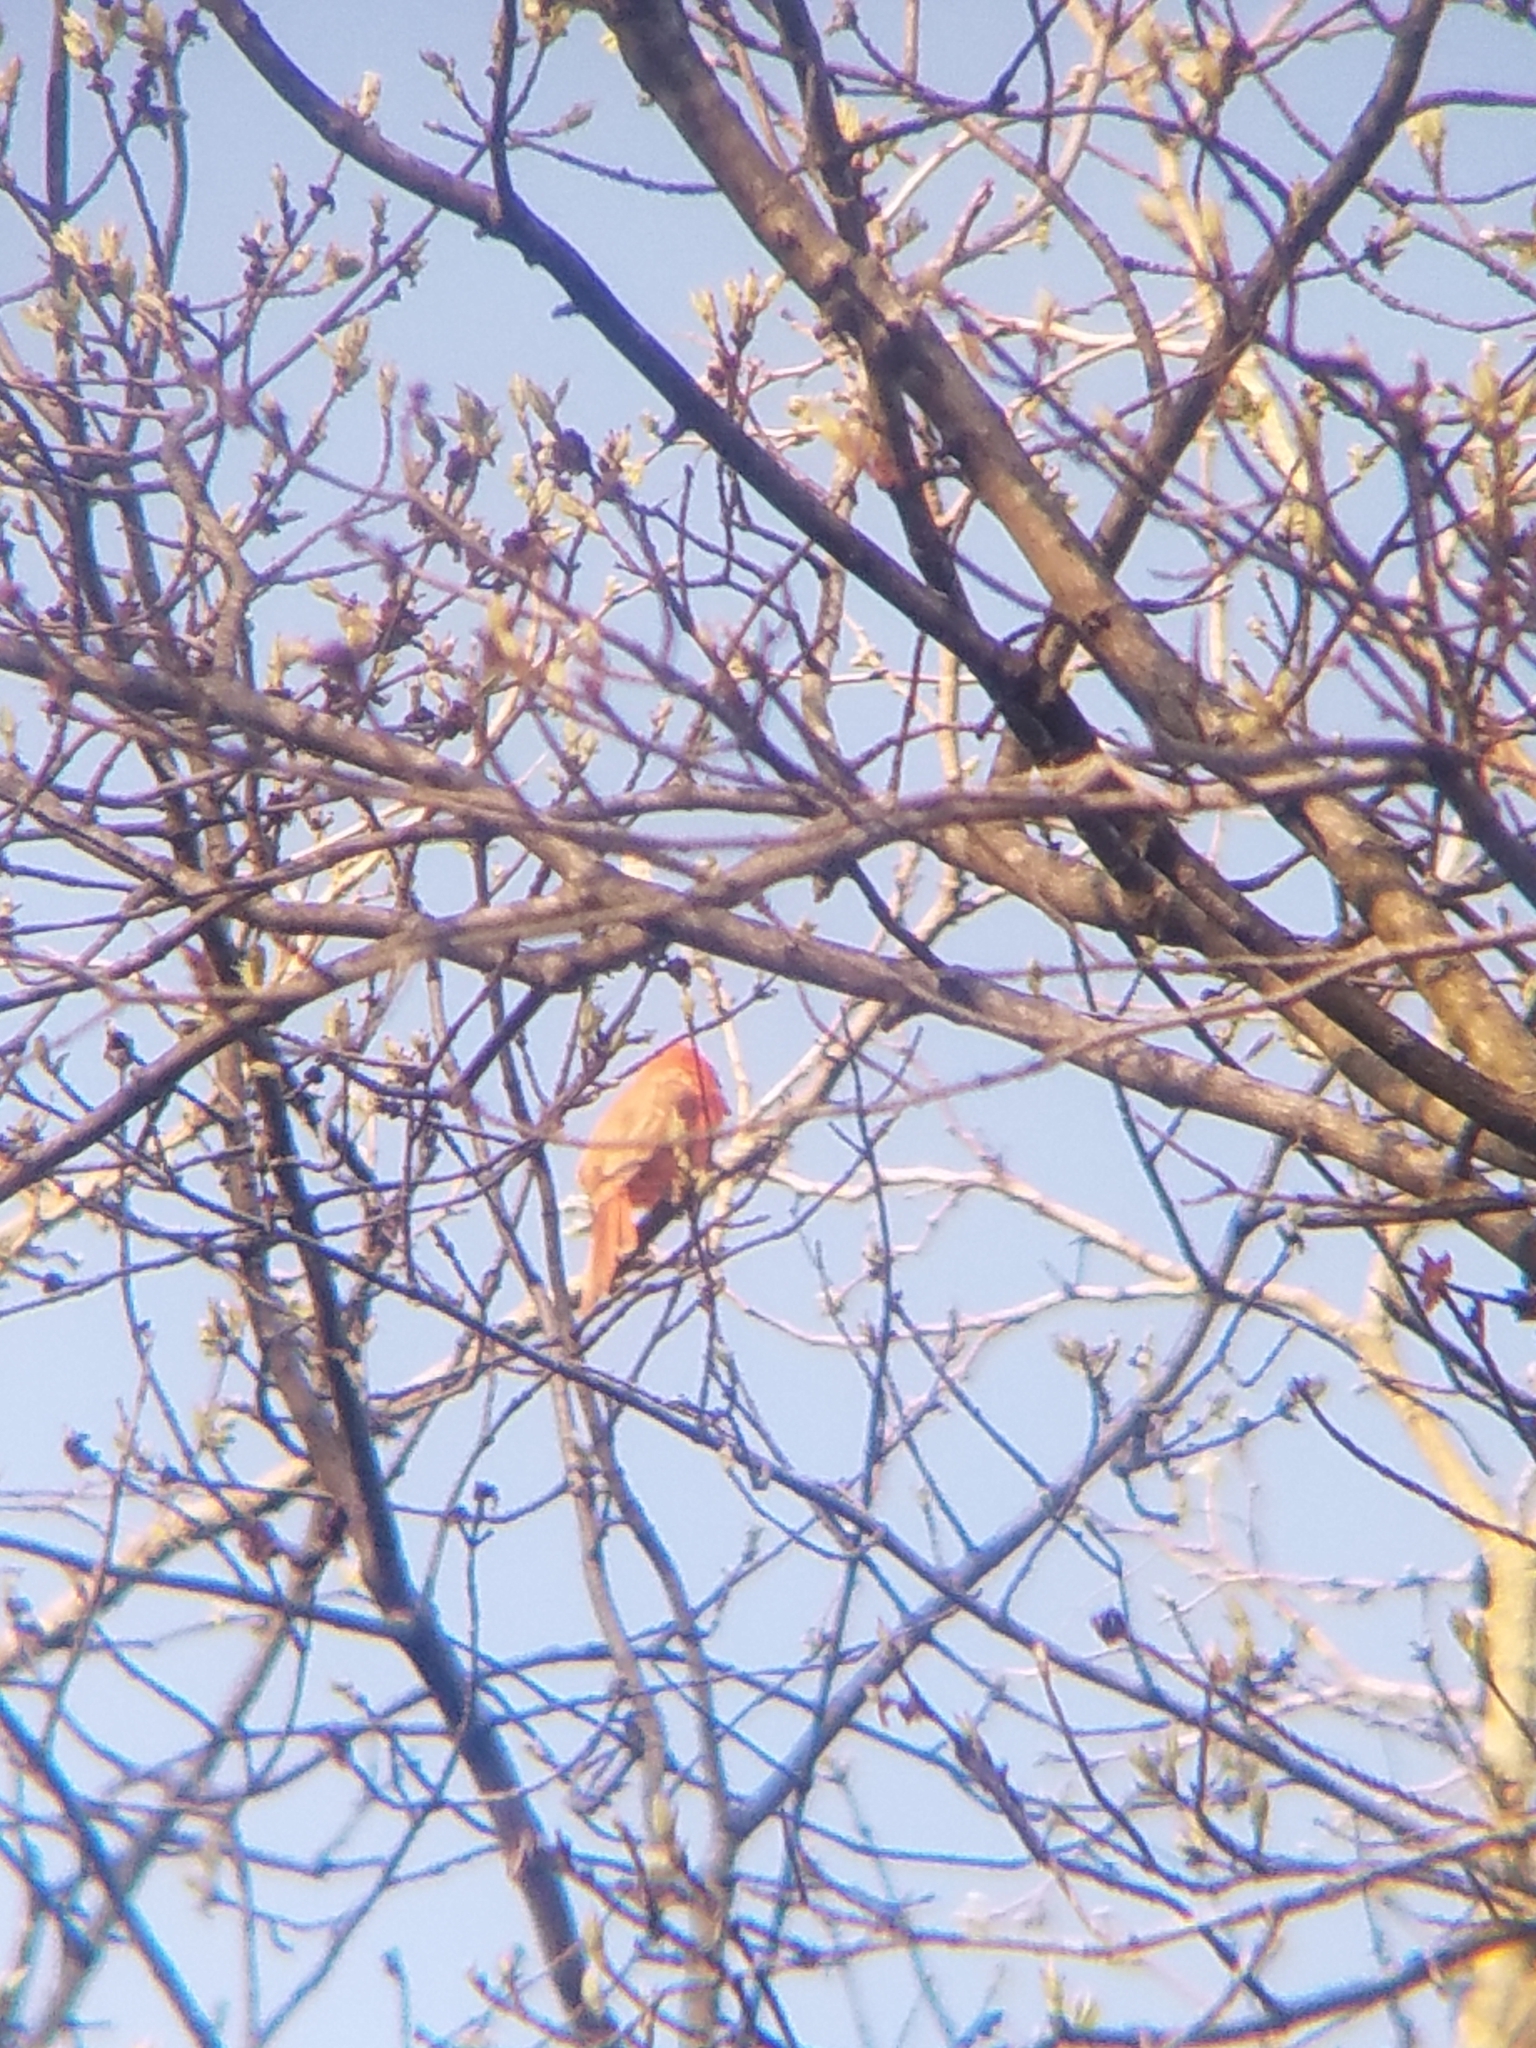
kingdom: Animalia
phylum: Chordata
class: Aves
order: Passeriformes
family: Cardinalidae
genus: Cardinalis
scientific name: Cardinalis cardinalis
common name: Northern cardinal
